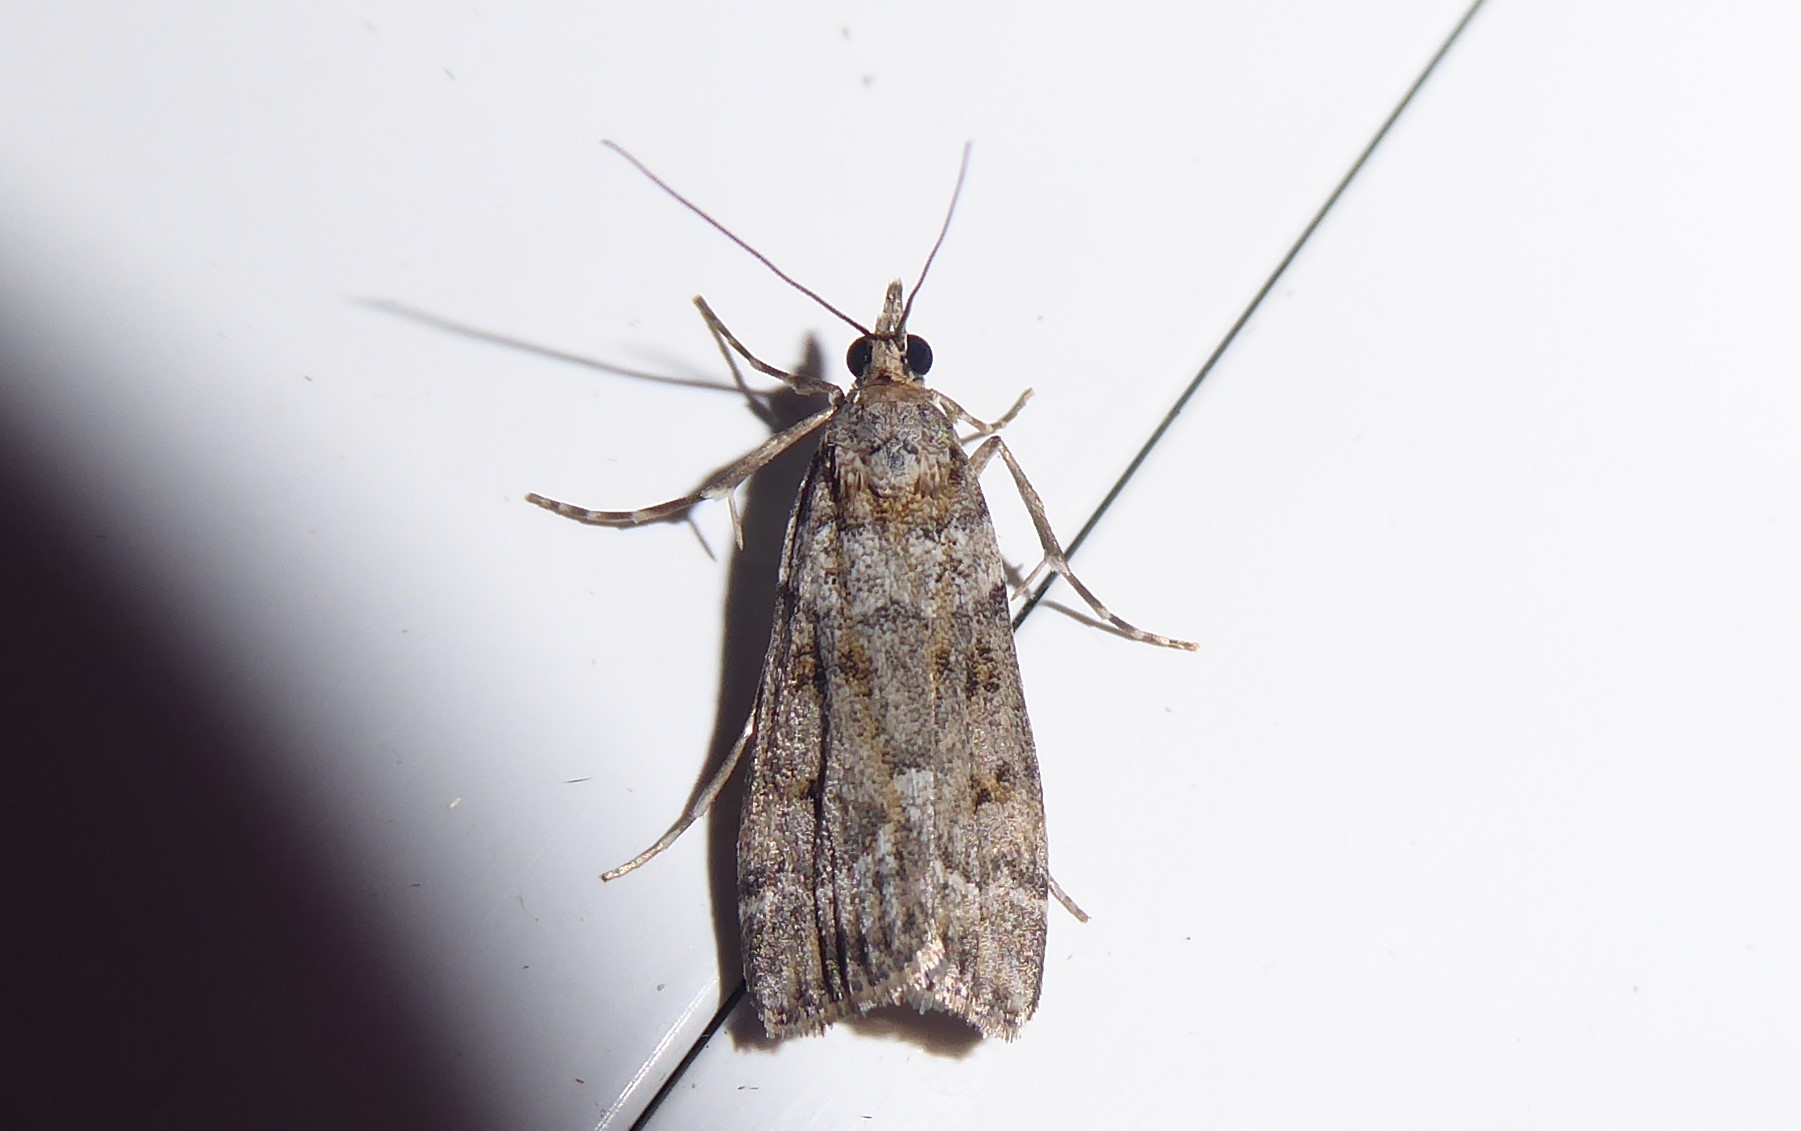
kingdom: Animalia
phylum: Arthropoda
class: Insecta
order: Lepidoptera
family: Crambidae
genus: Eudonia
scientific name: Eudonia diphtheralis
